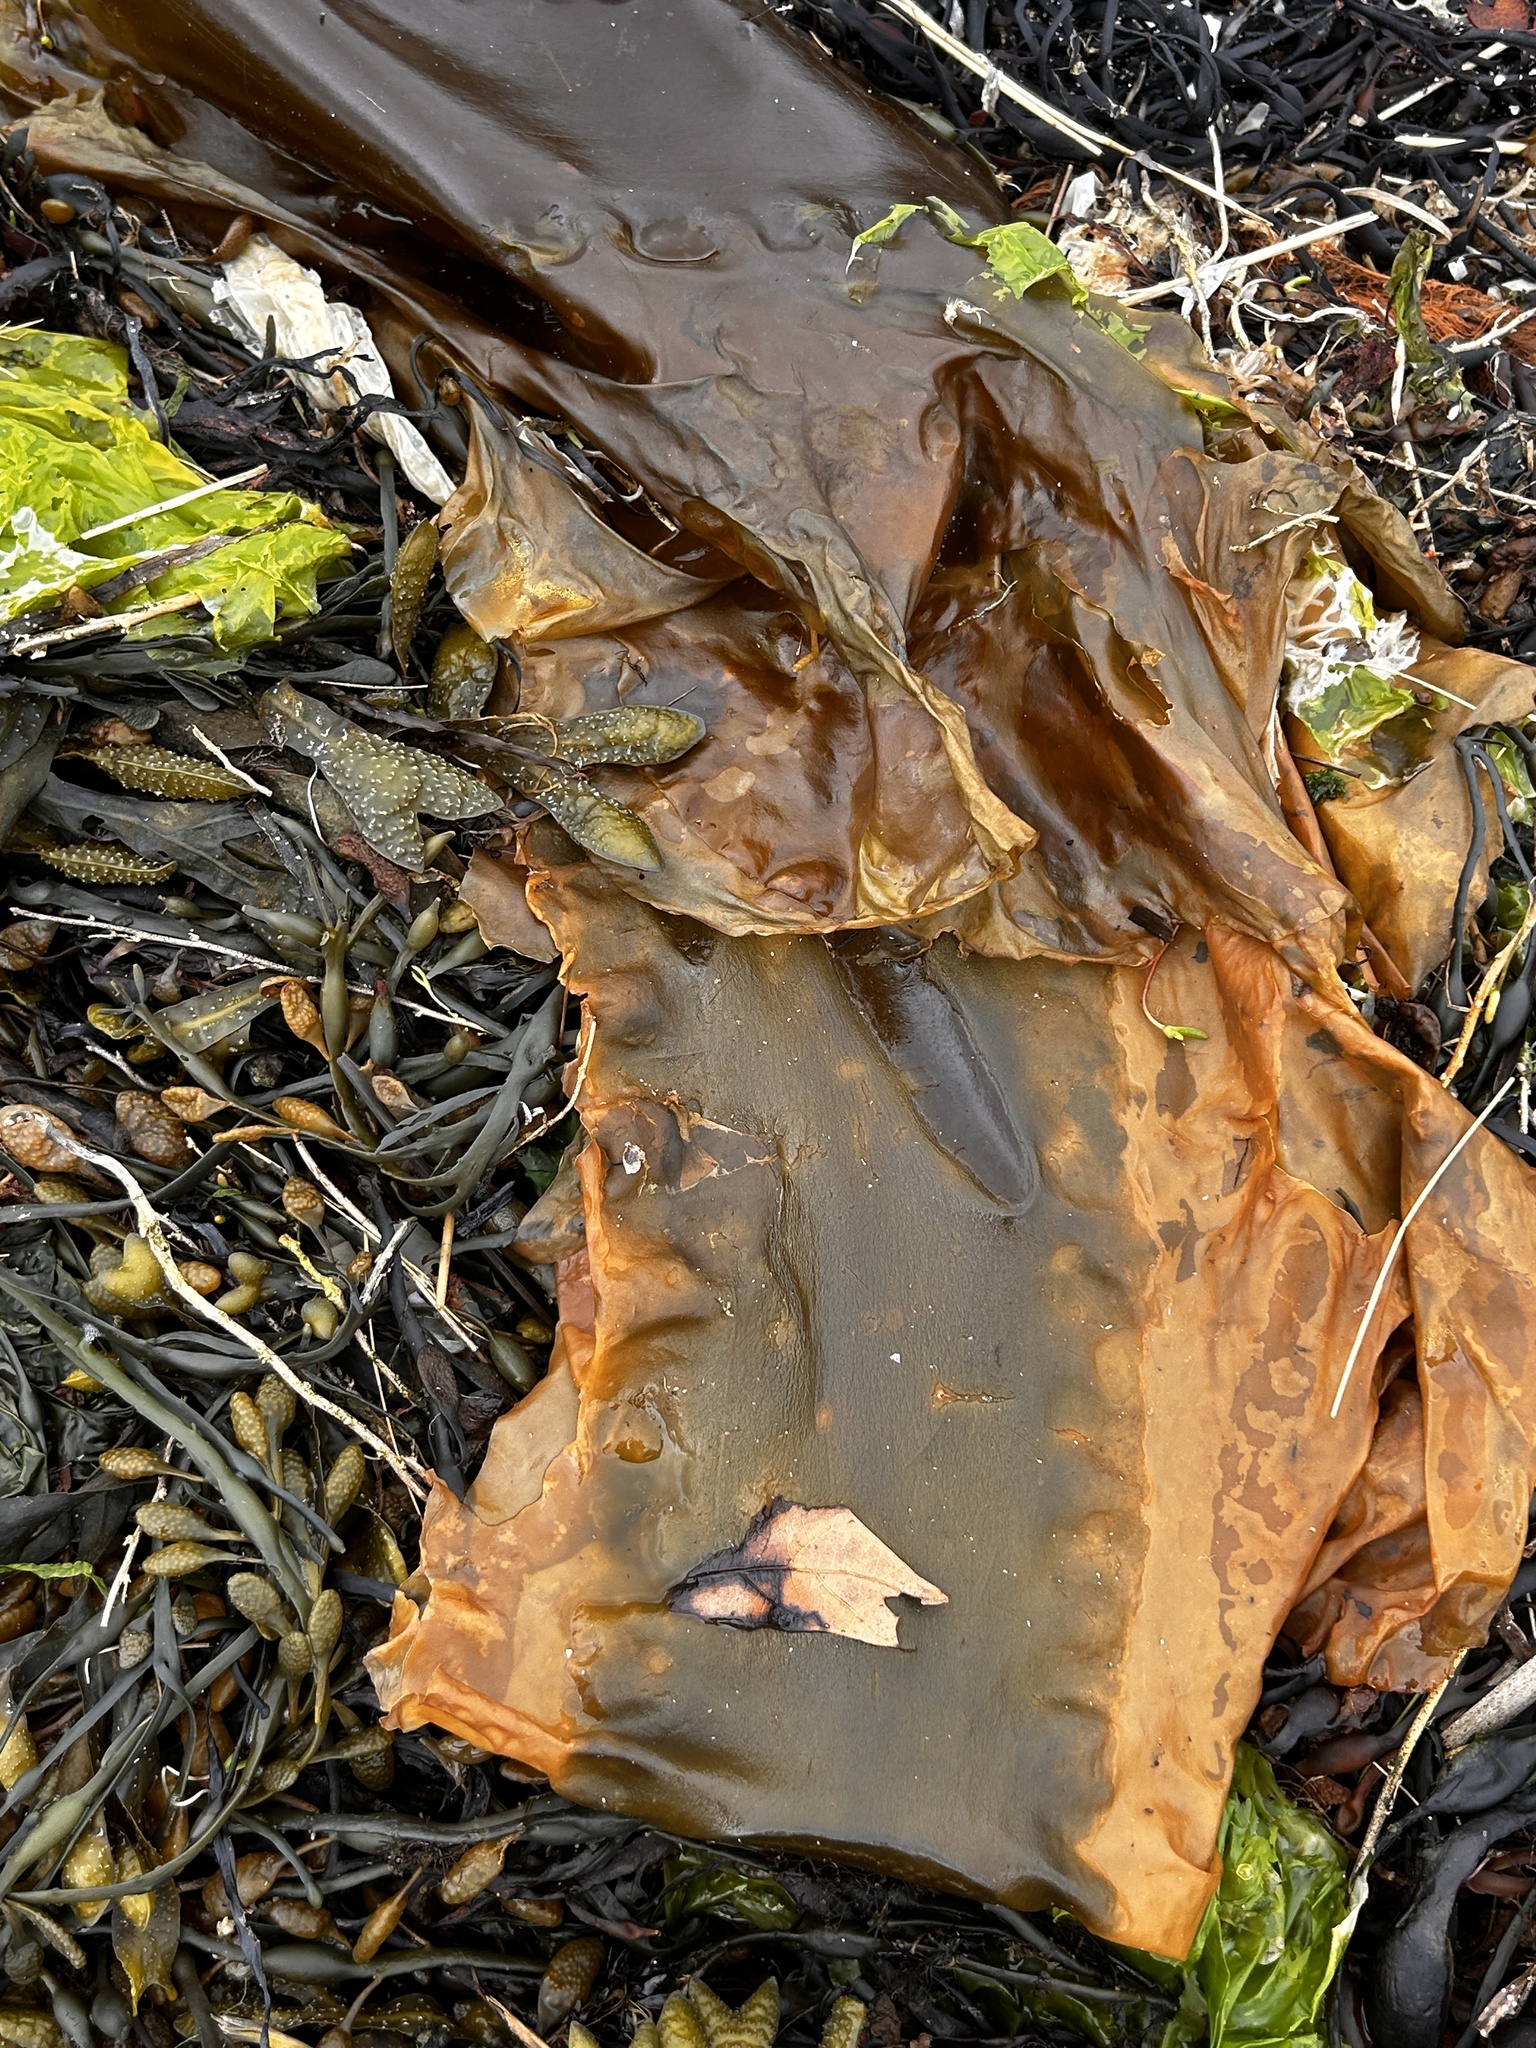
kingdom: Chromista
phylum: Ochrophyta
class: Phaeophyceae
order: Laminariales
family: Laminariaceae
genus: Saccharina
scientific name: Saccharina latissima
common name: Poor man's weather glass
